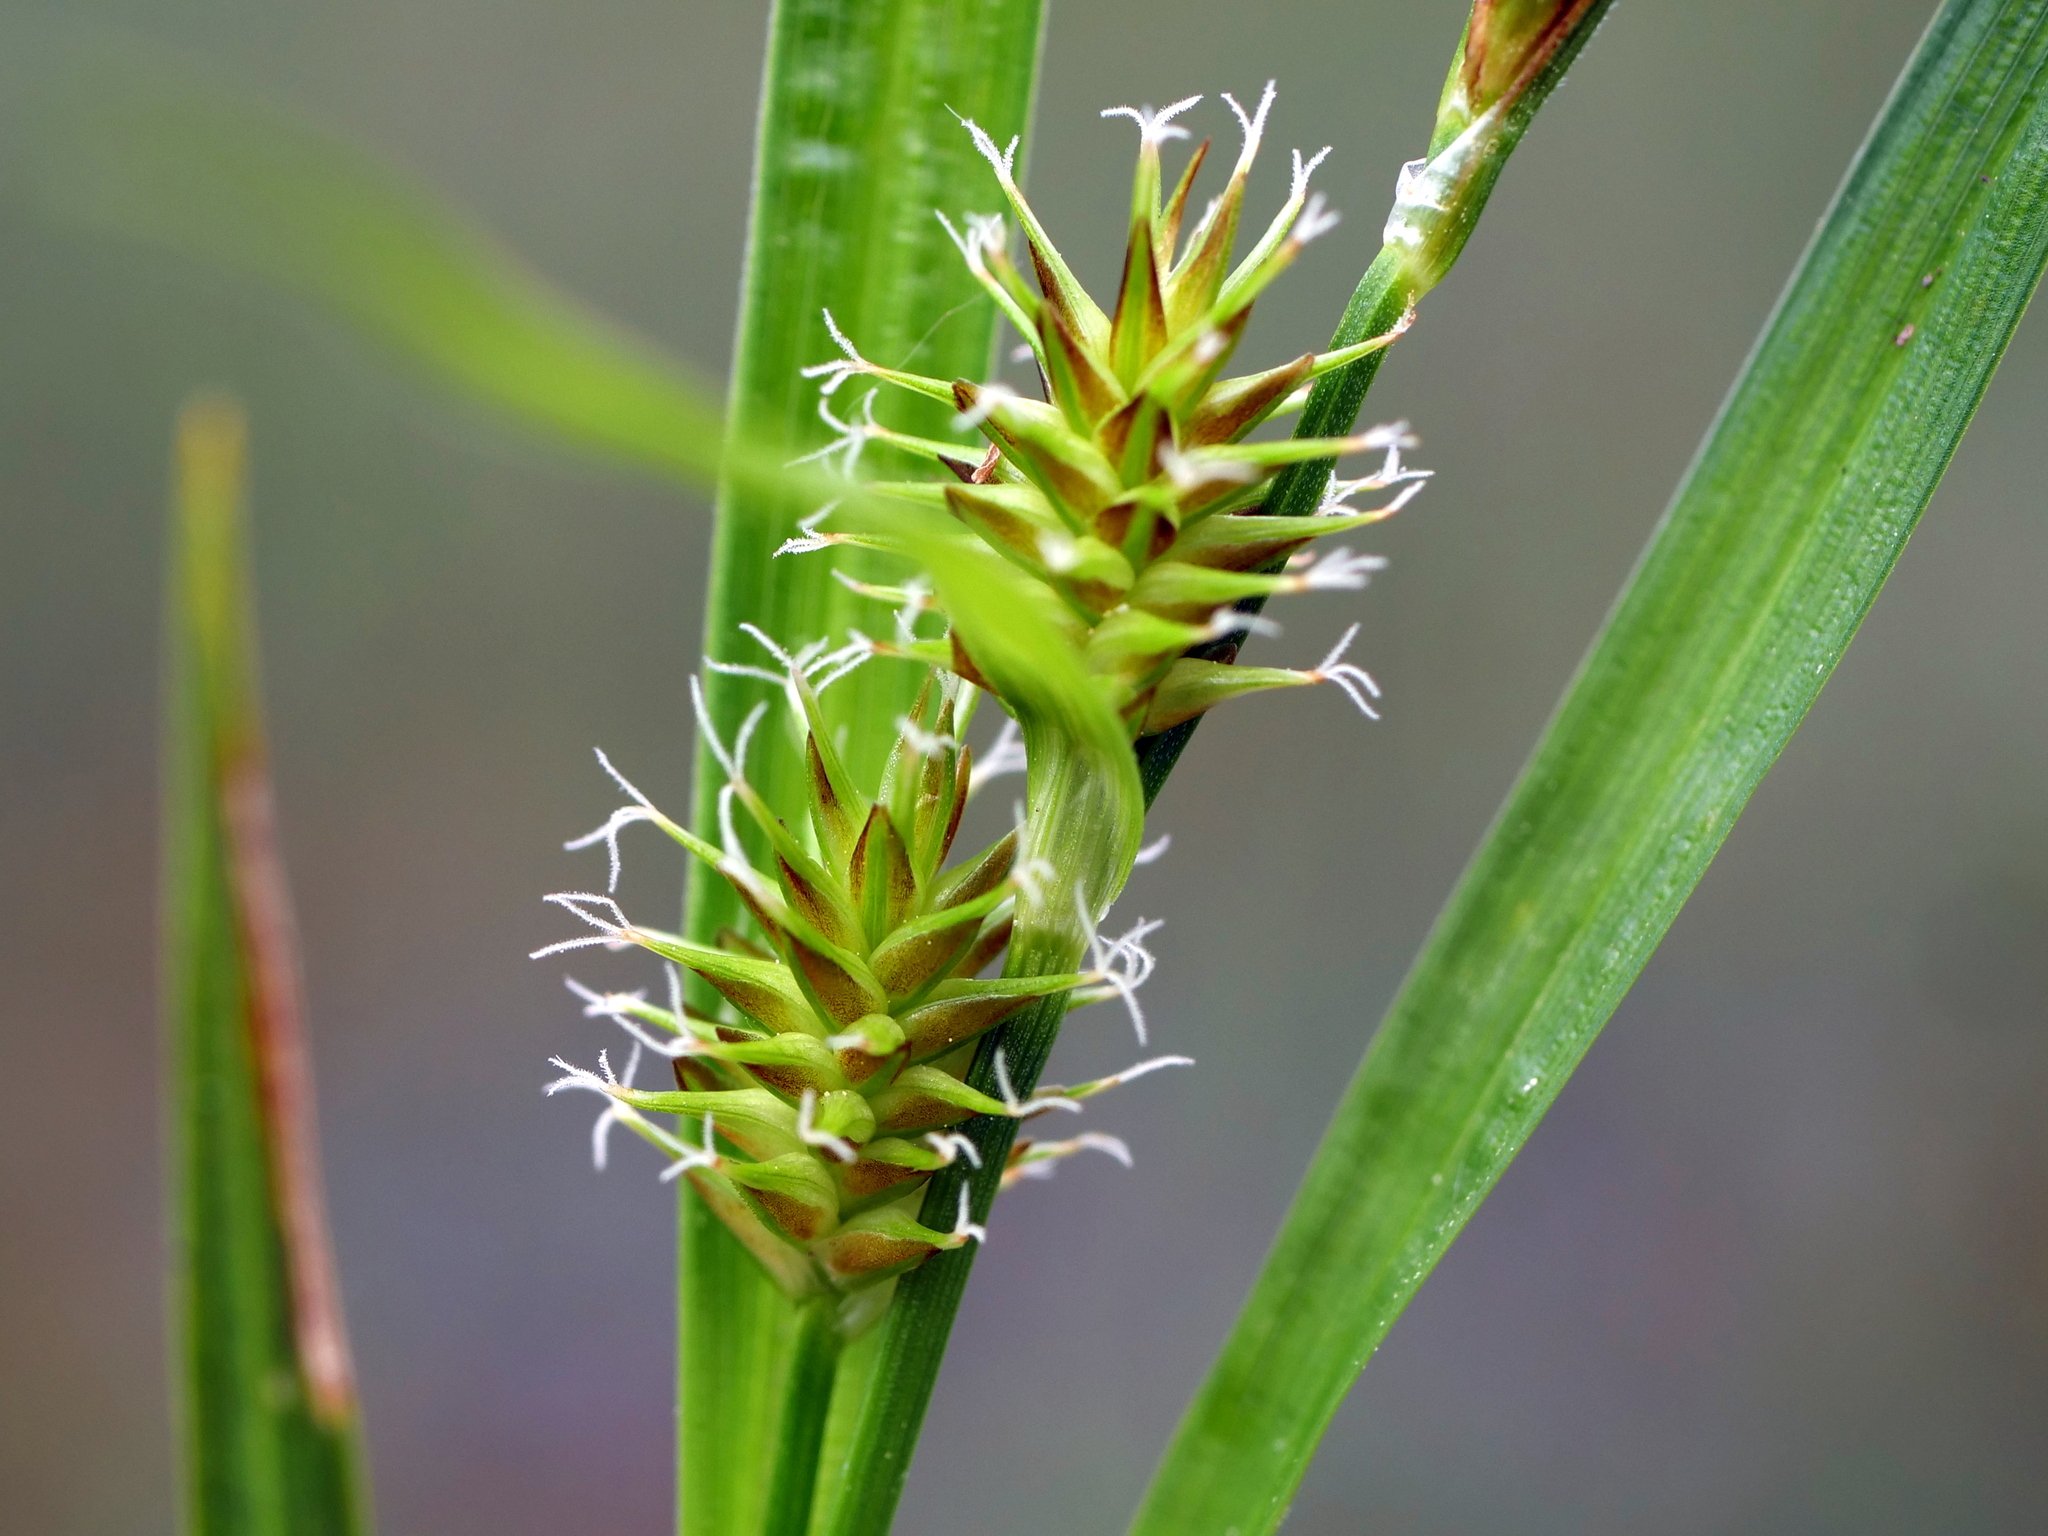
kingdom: Plantae
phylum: Tracheophyta
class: Liliopsida
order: Poales
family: Cyperaceae
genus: Carex
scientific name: Carex lepidocarpa
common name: Long-stalked yellow-sedge
